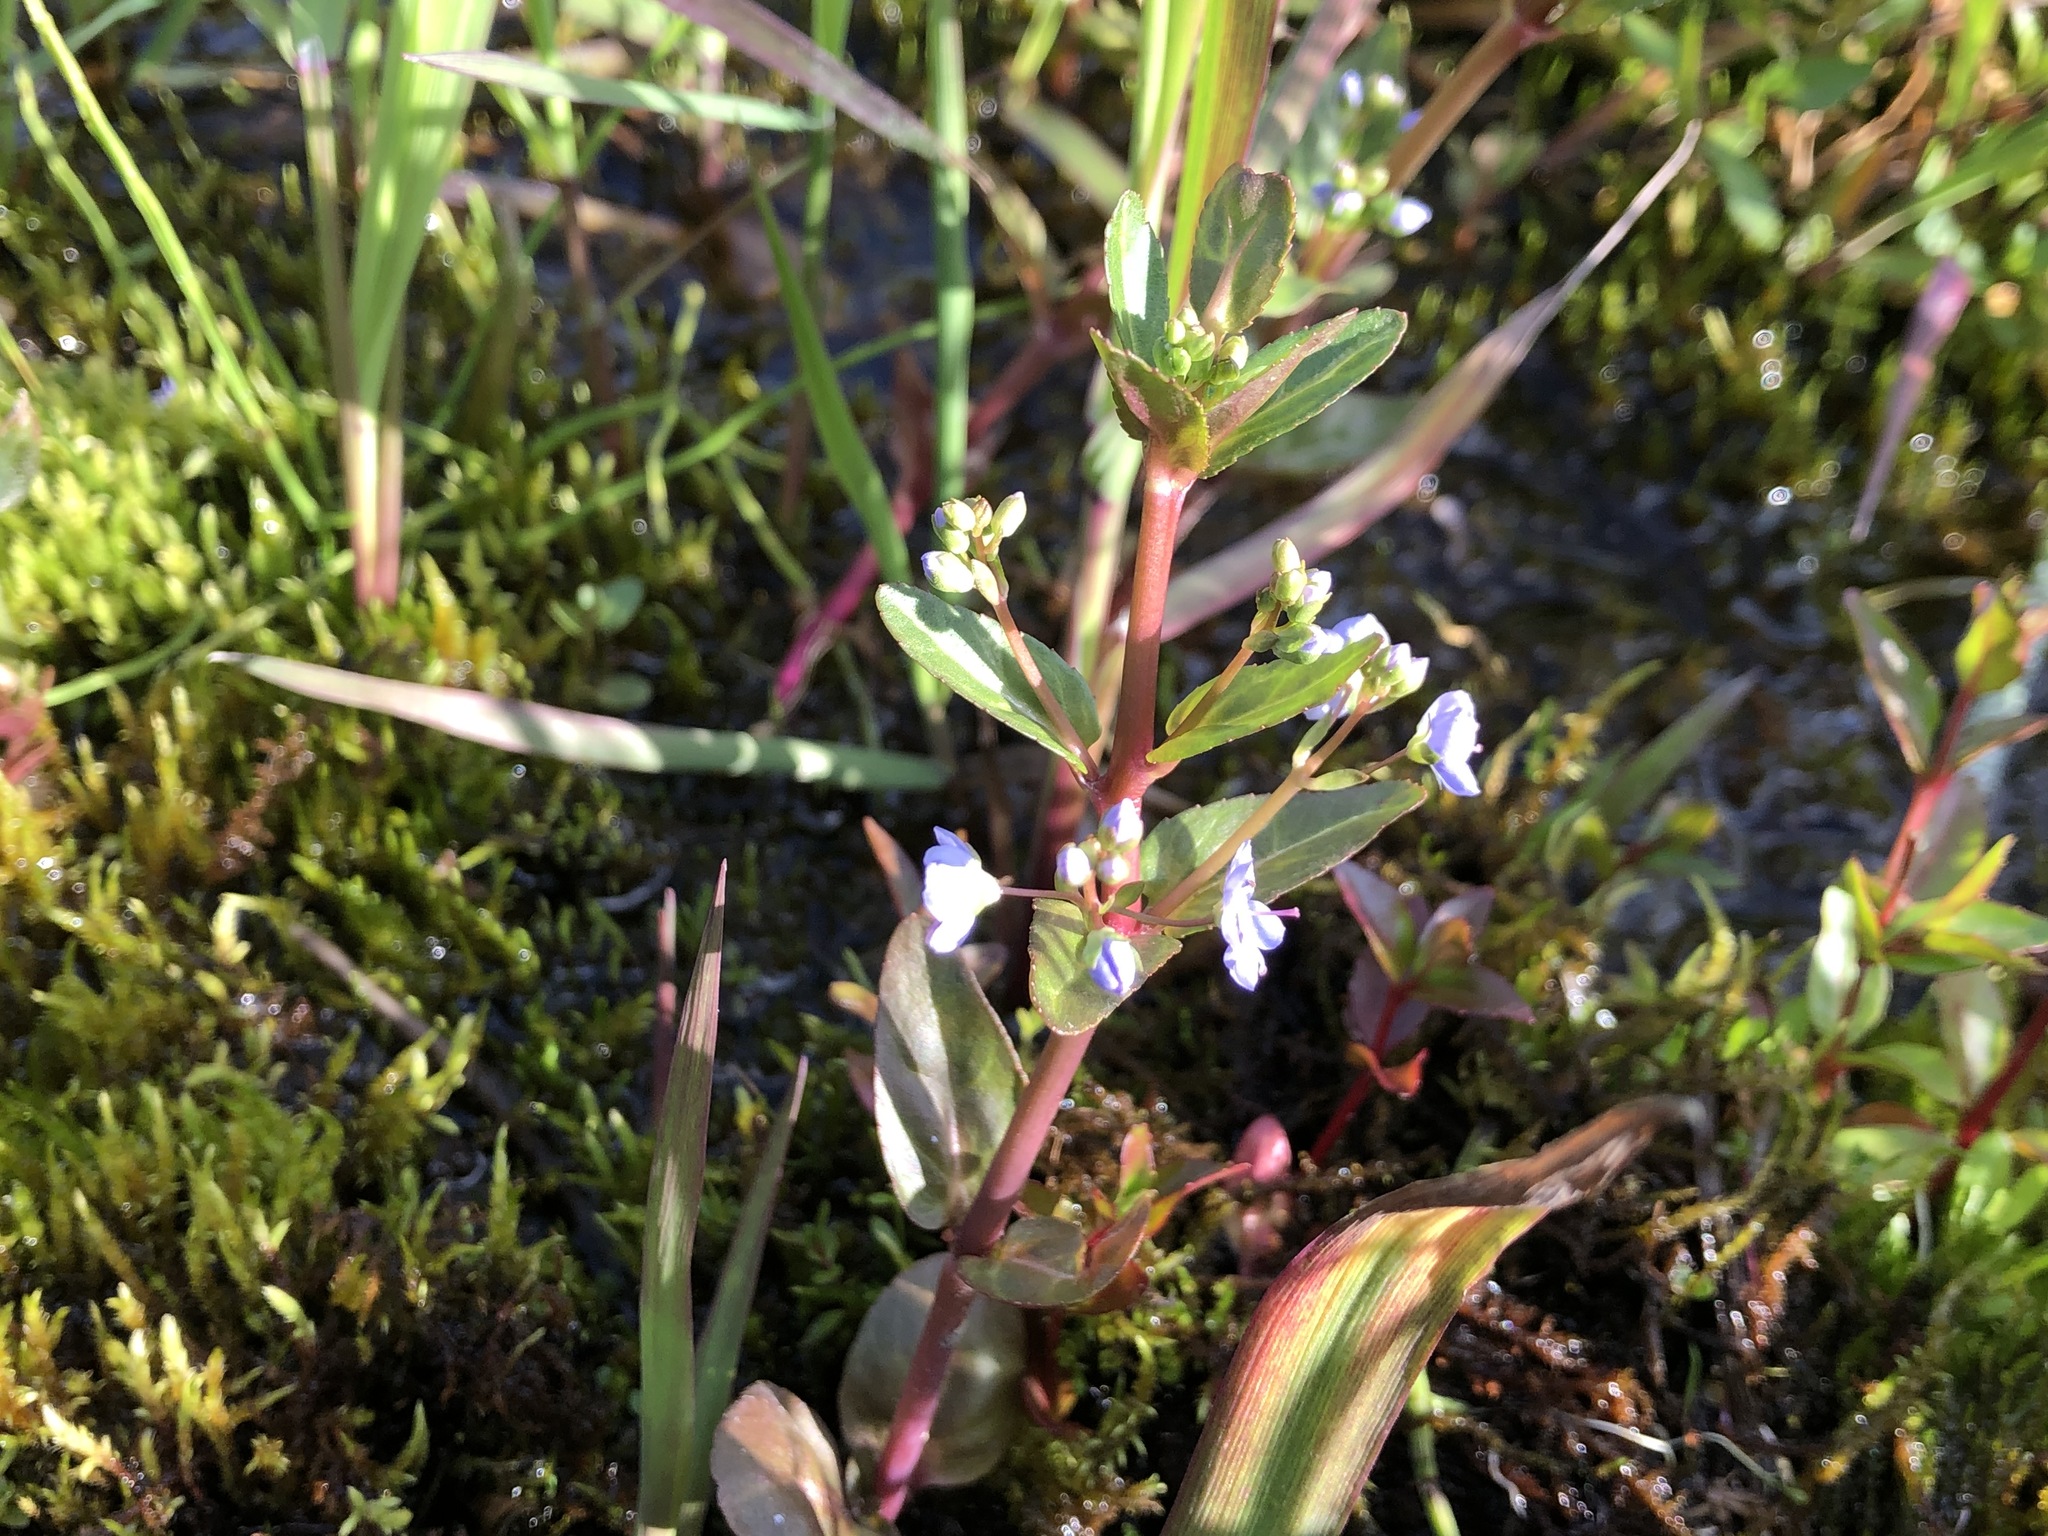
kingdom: Plantae
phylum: Tracheophyta
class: Magnoliopsida
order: Lamiales
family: Plantaginaceae
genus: Veronica
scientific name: Veronica americana
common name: American brooklime
